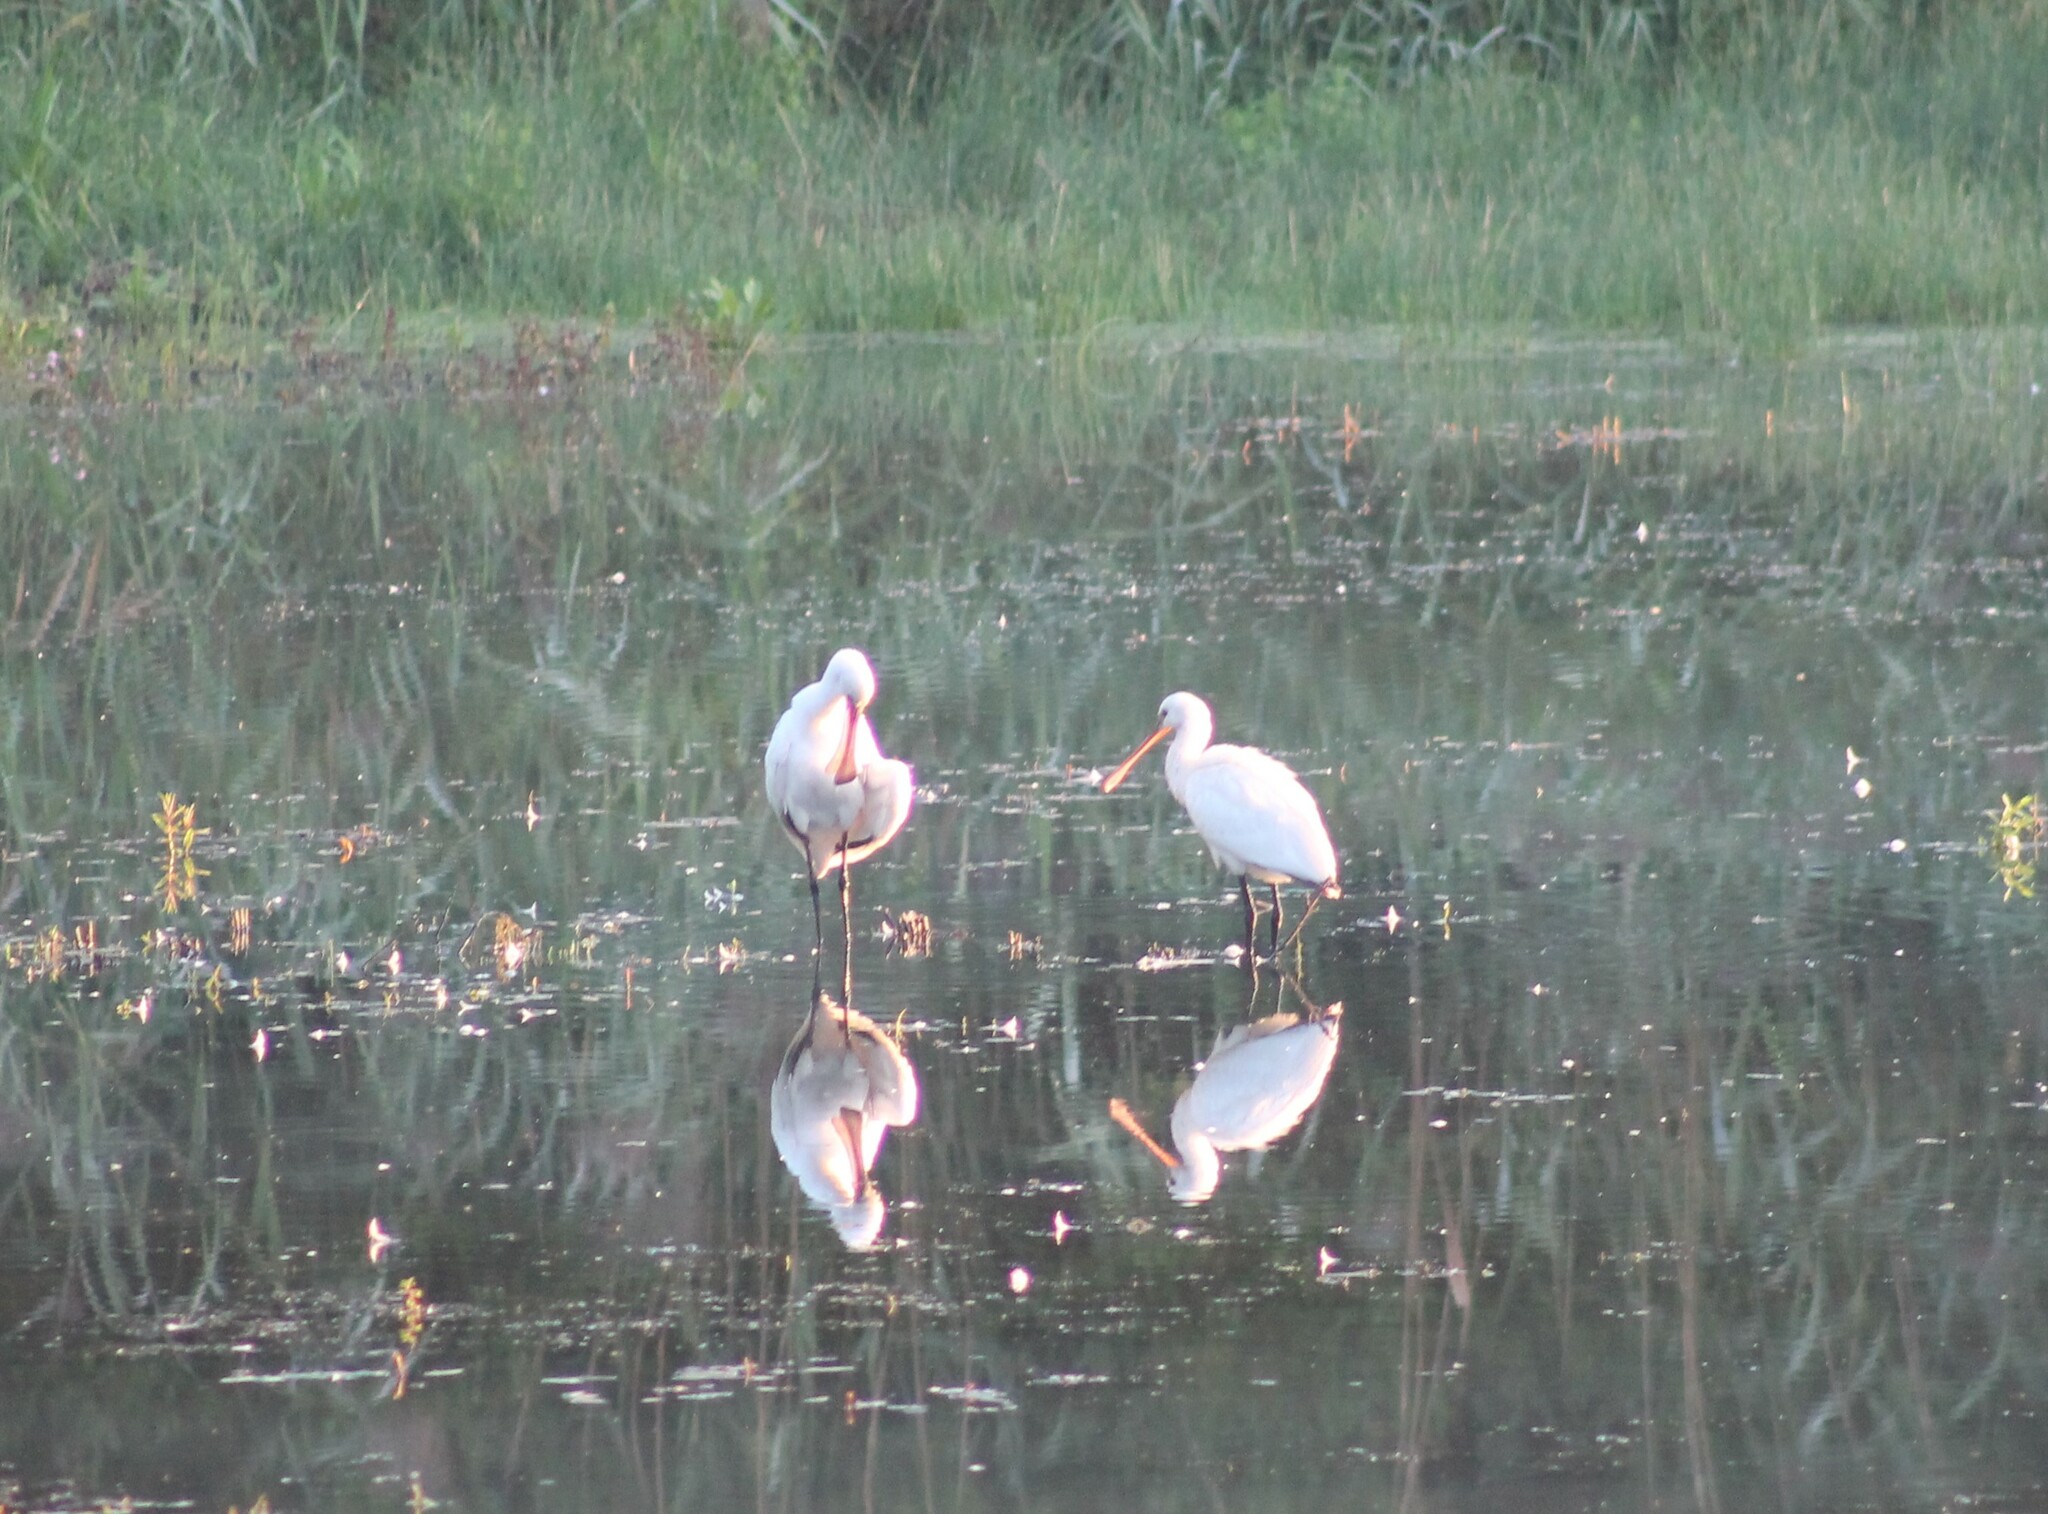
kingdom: Animalia
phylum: Chordata
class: Aves
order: Pelecaniformes
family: Threskiornithidae
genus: Platalea
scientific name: Platalea leucorodia
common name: Eurasian spoonbill
